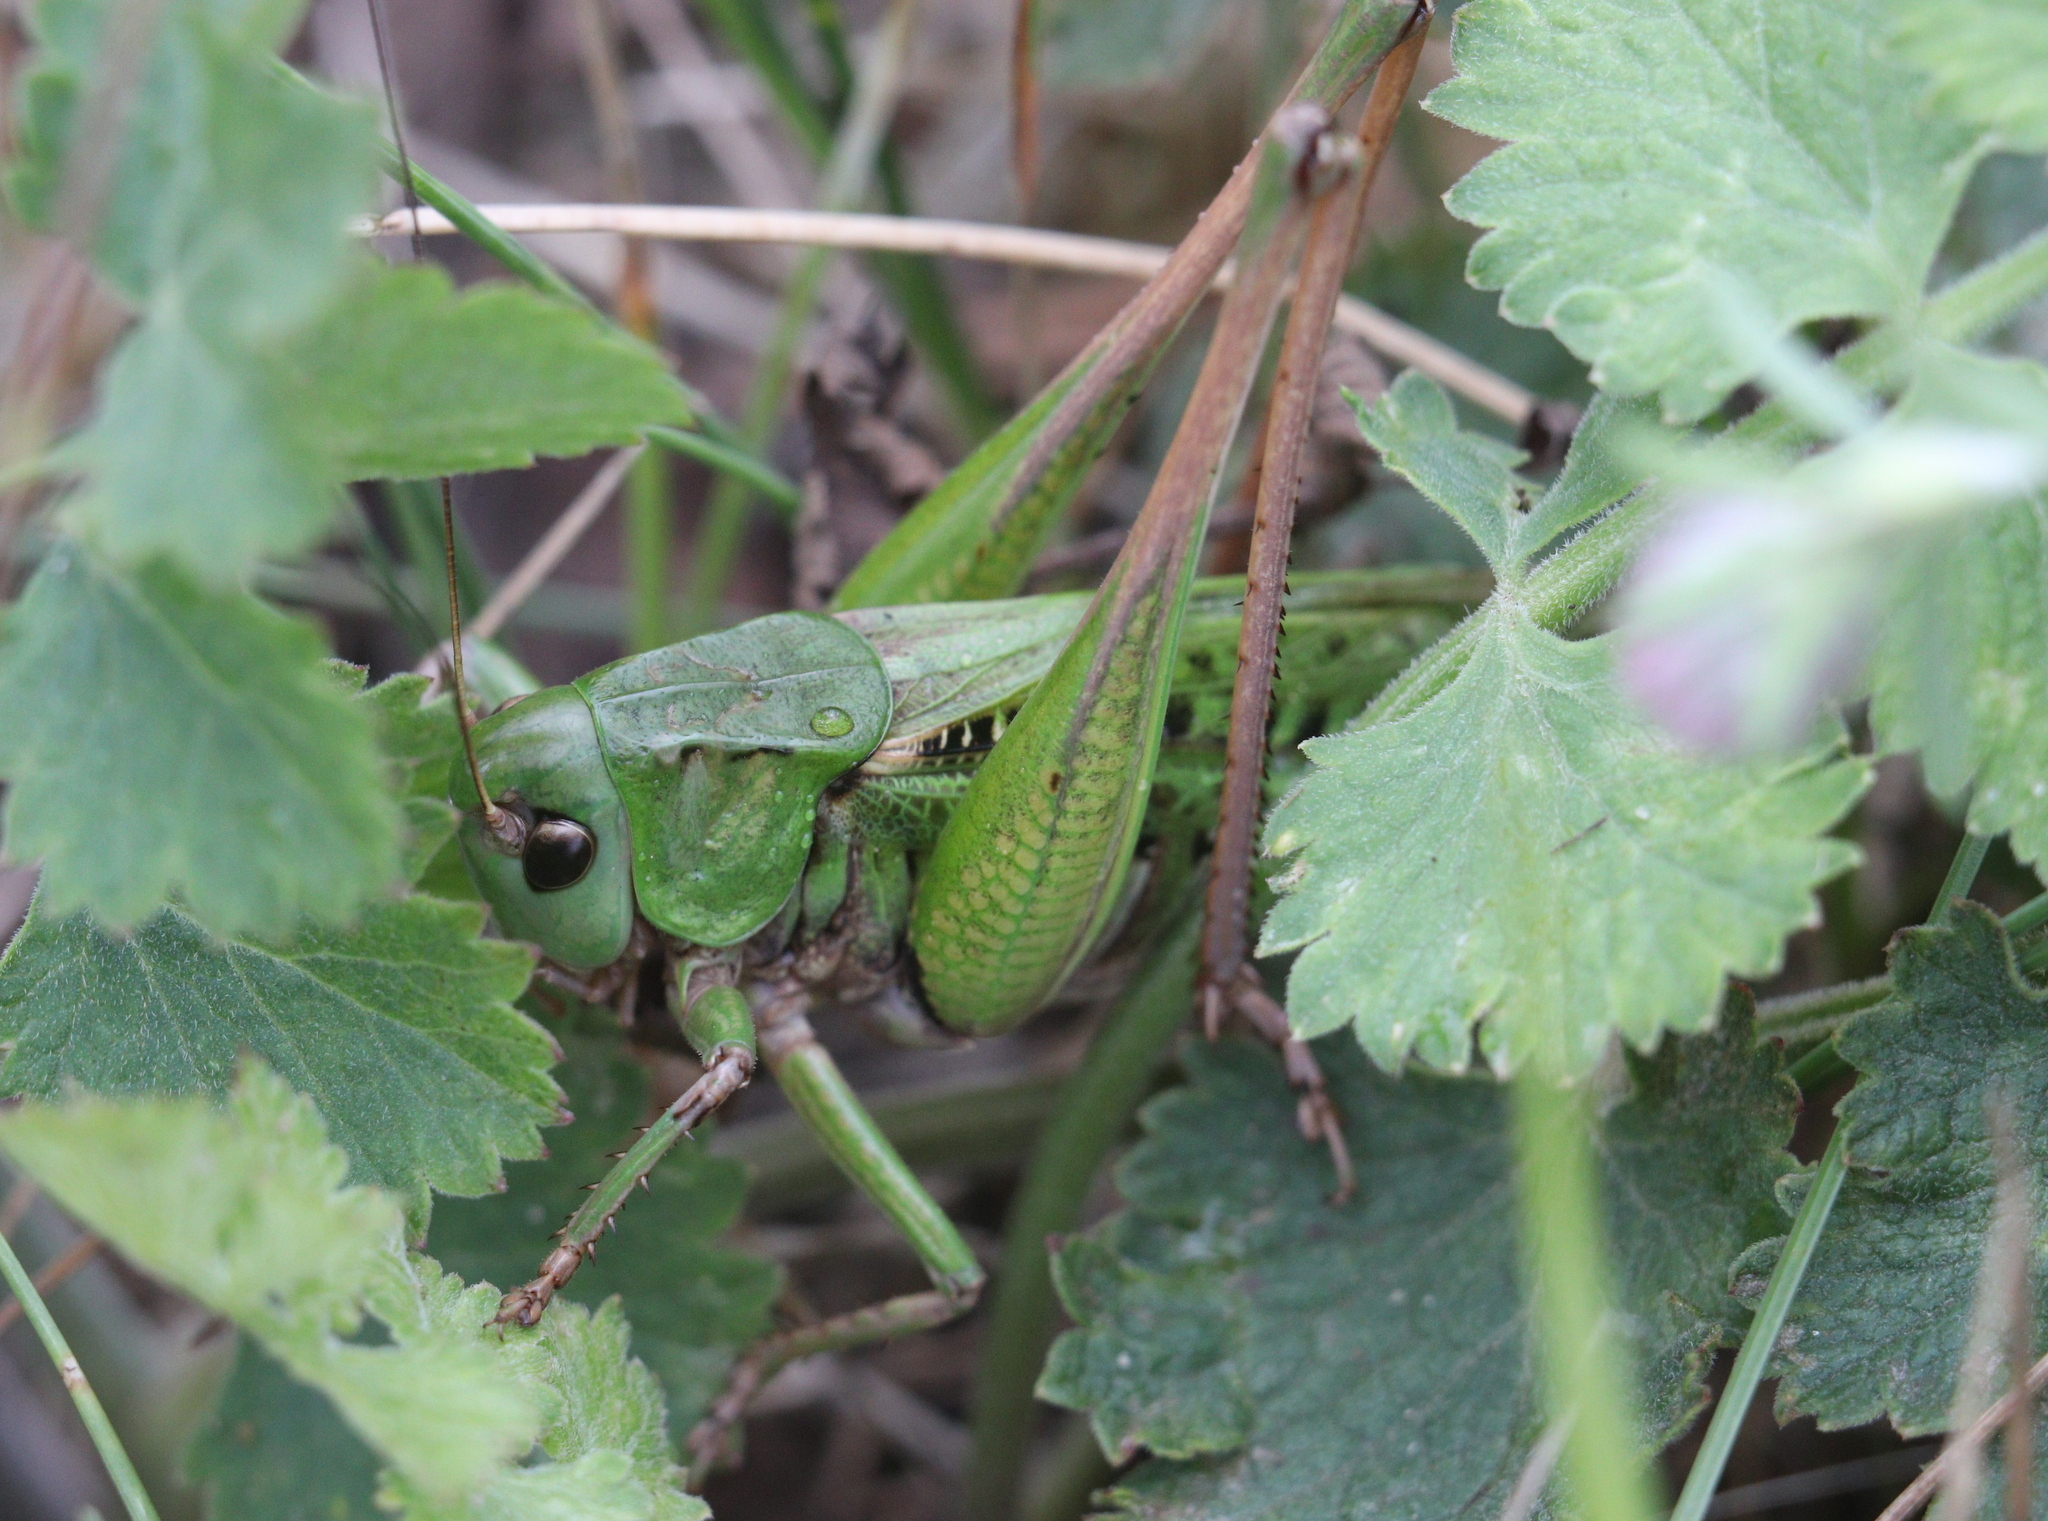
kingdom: Animalia
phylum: Arthropoda
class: Insecta
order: Orthoptera
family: Tettigoniidae
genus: Decticus
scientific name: Decticus verrucivorus
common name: Wart-biter
